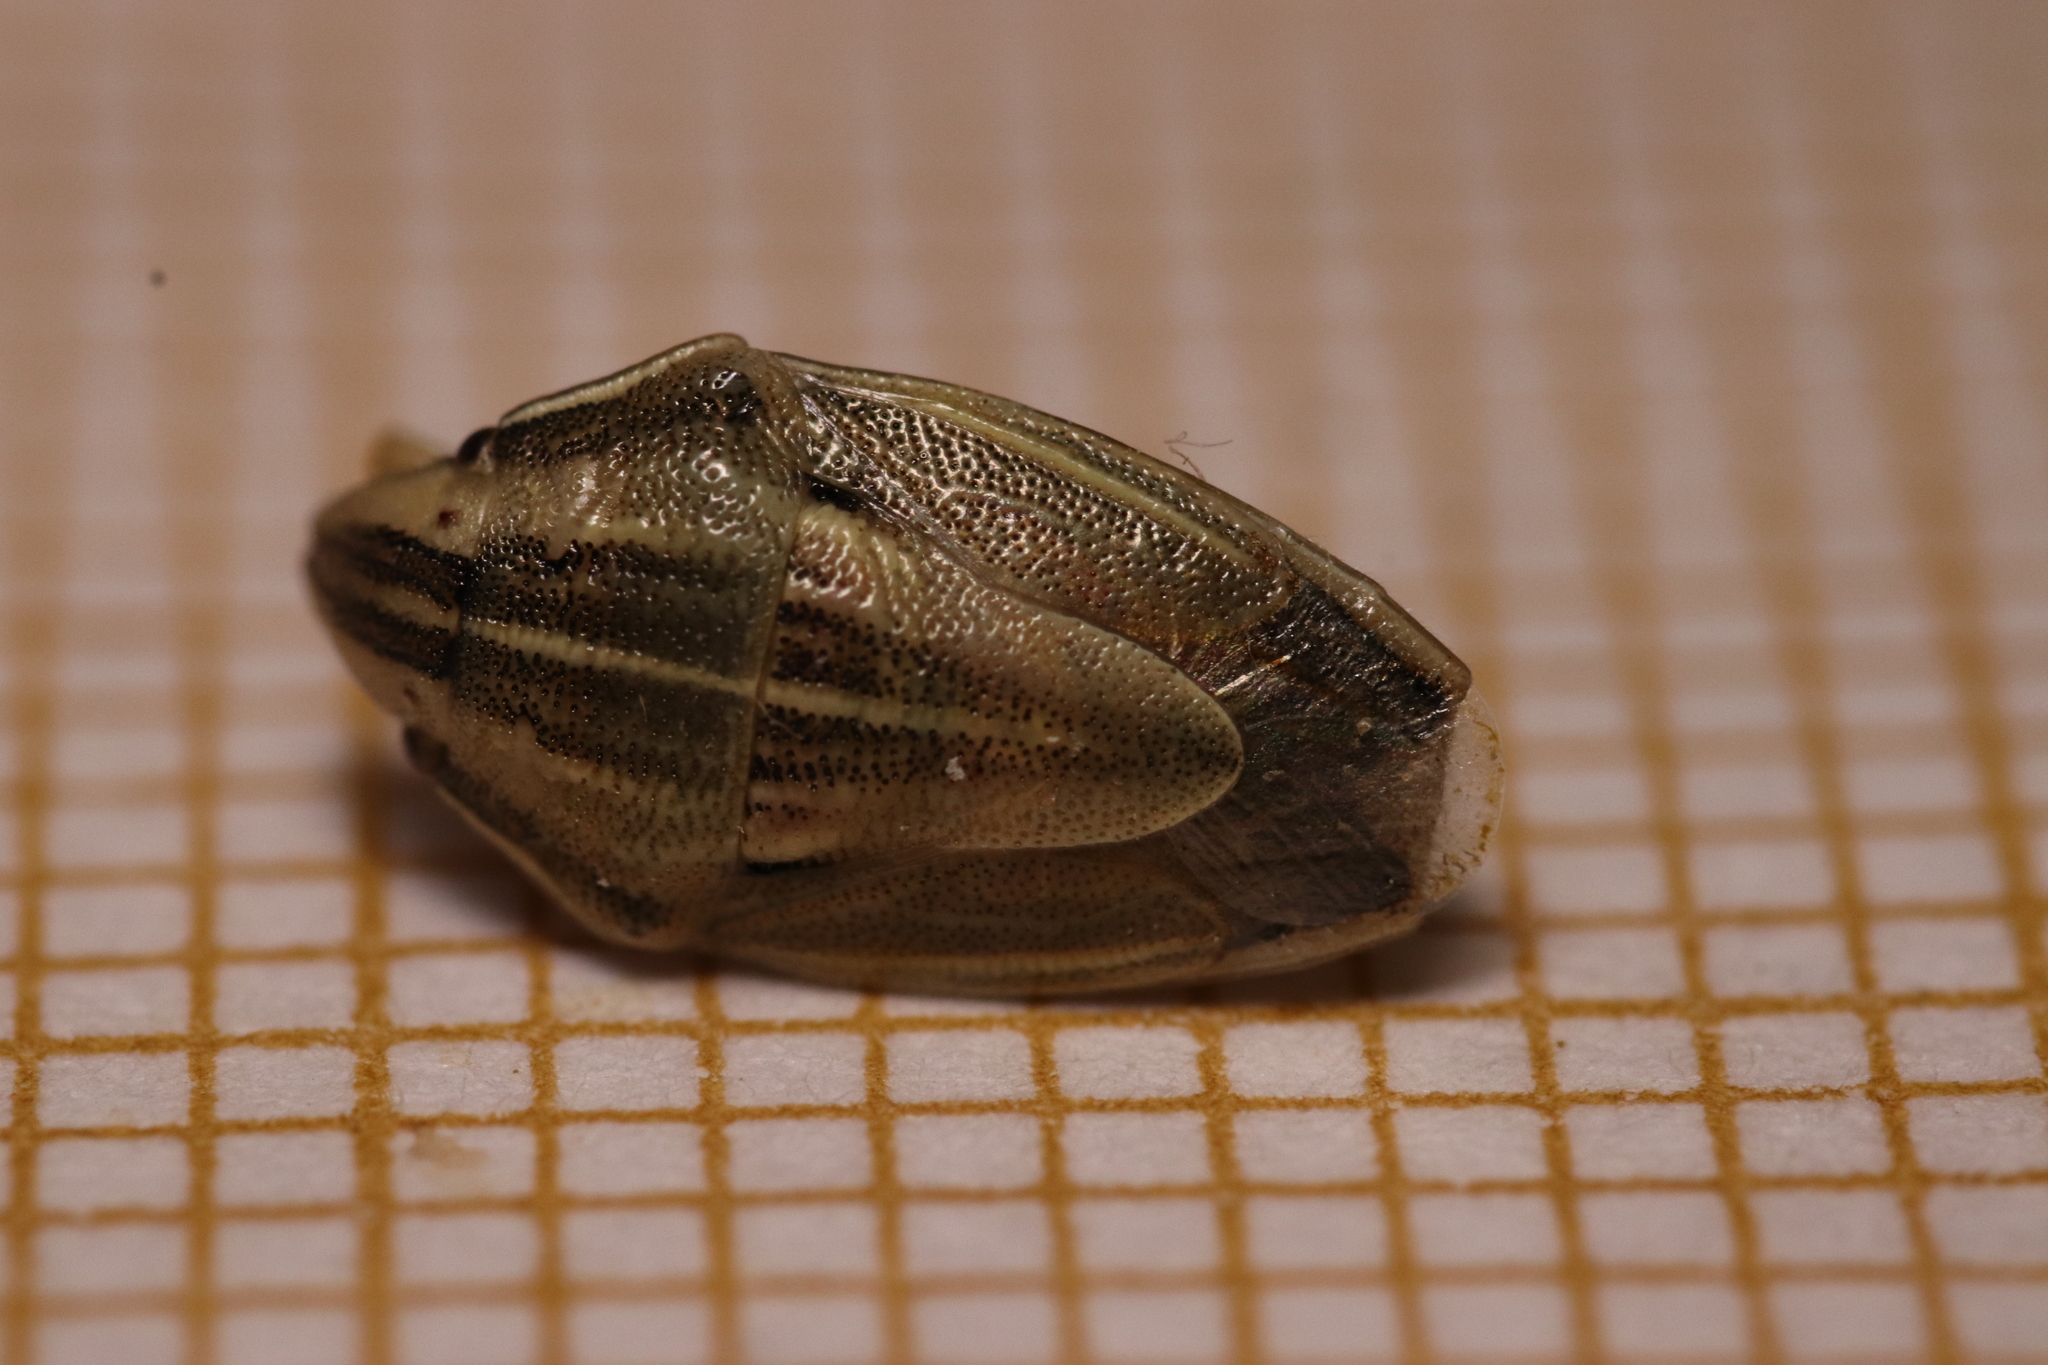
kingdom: Animalia
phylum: Arthropoda
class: Insecta
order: Hemiptera
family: Pentatomidae
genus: Aelia
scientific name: Aelia acuminata
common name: Bishop's mitre
